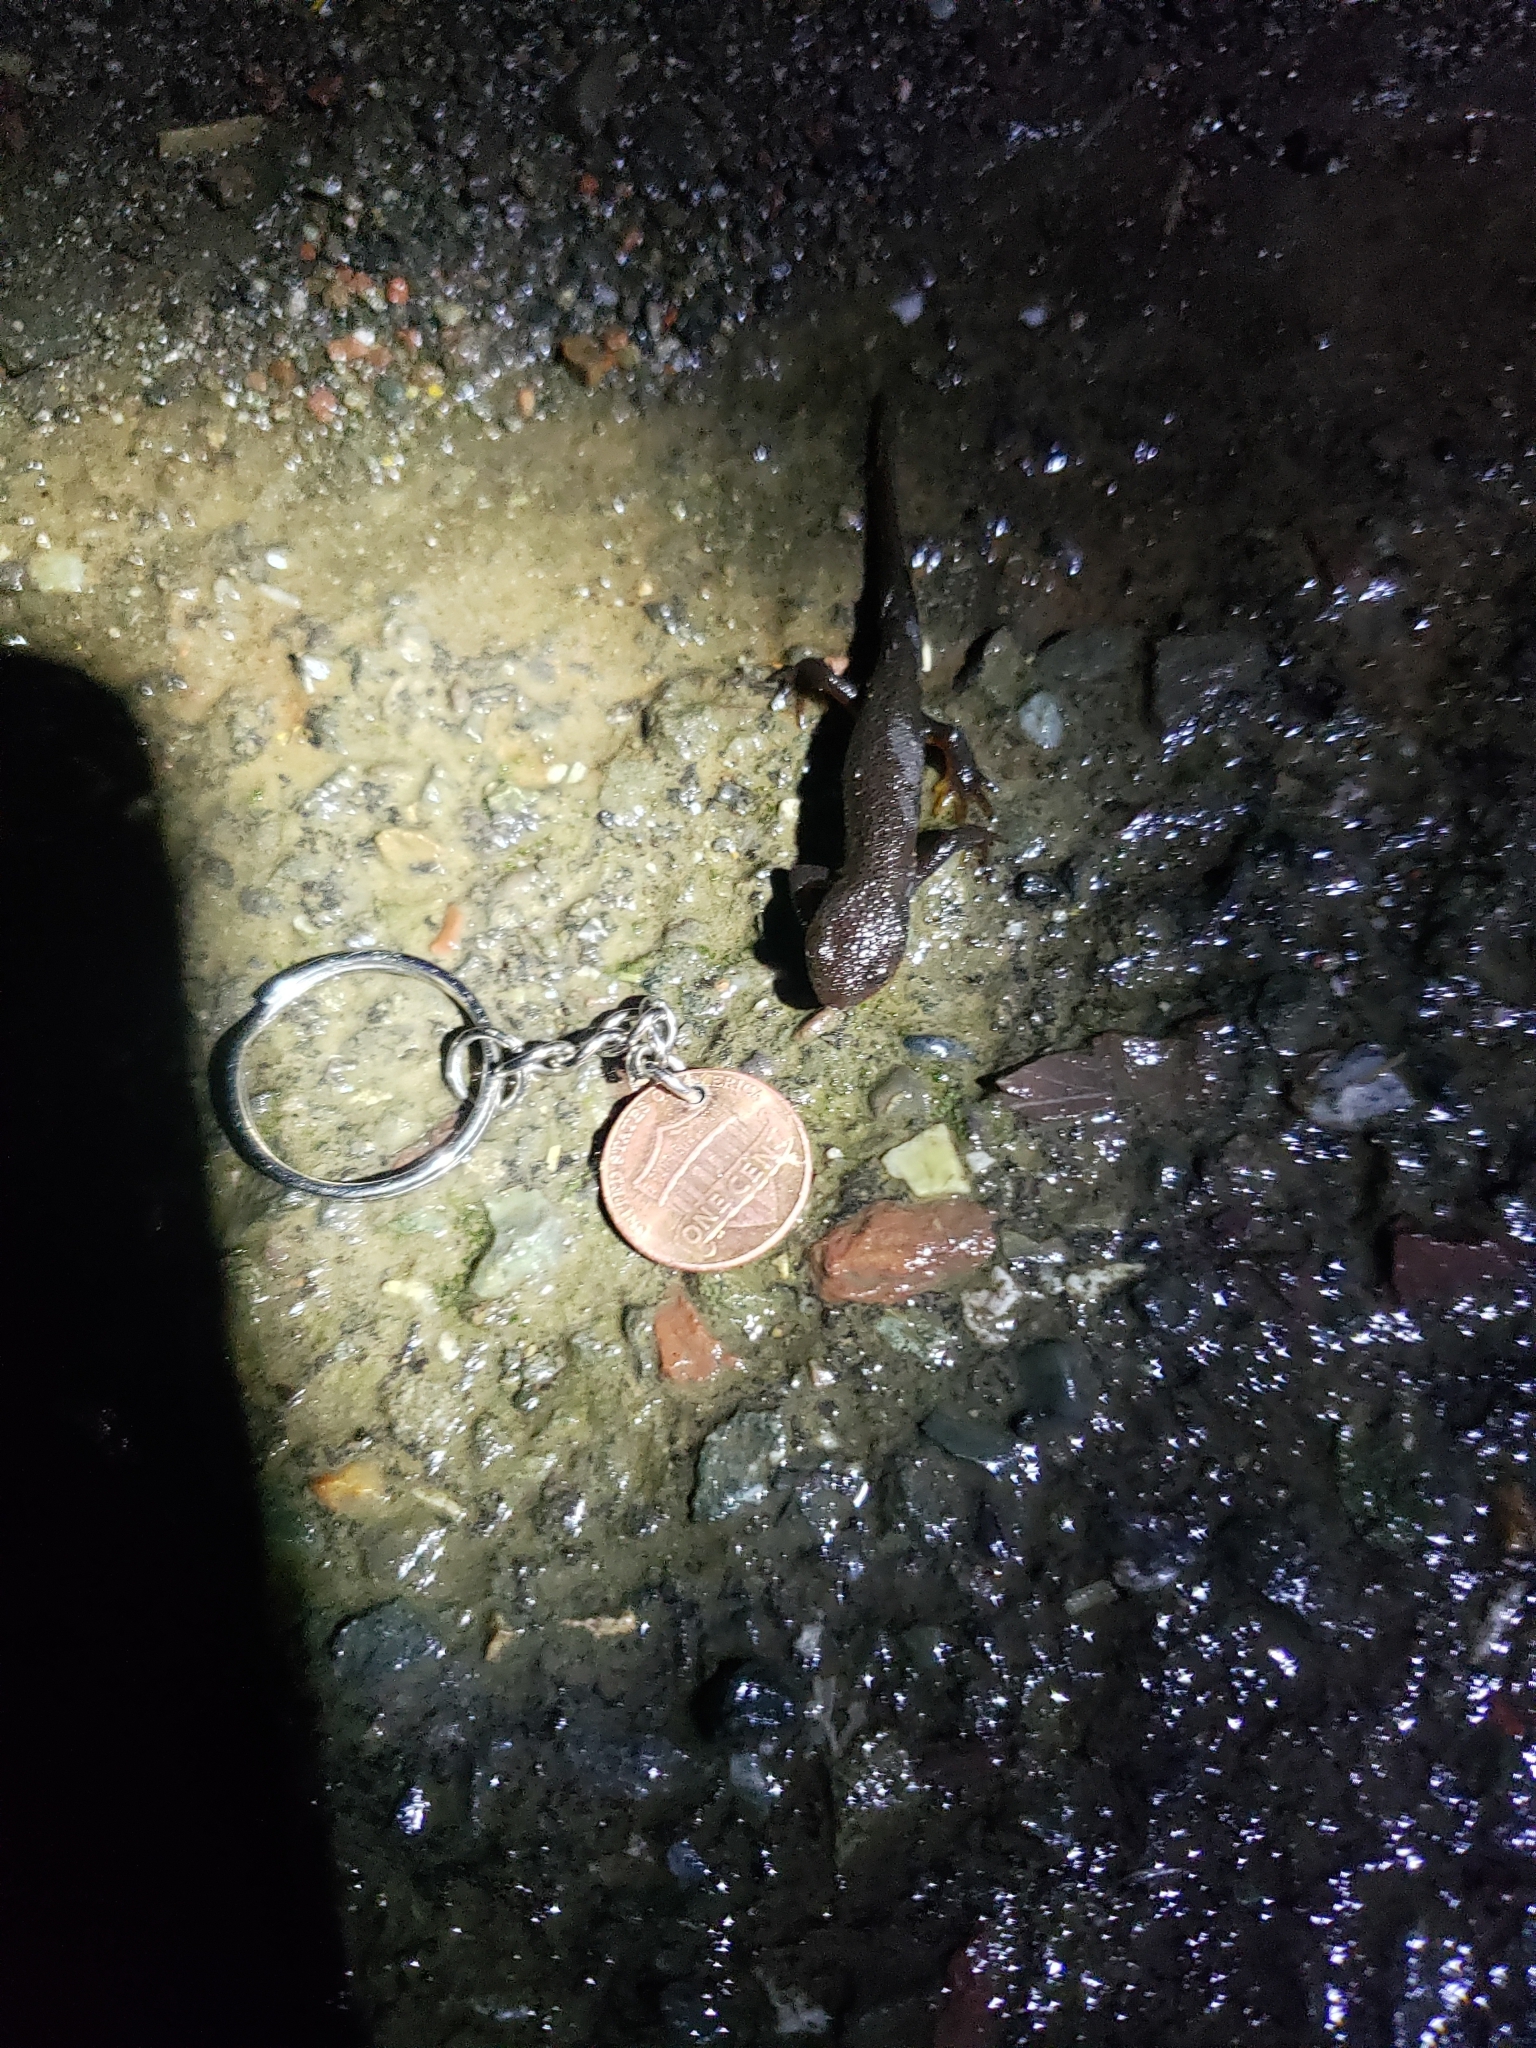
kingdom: Animalia
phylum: Chordata
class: Amphibia
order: Caudata
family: Salamandridae
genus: Taricha
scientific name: Taricha granulosa
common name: Roughskin newt
